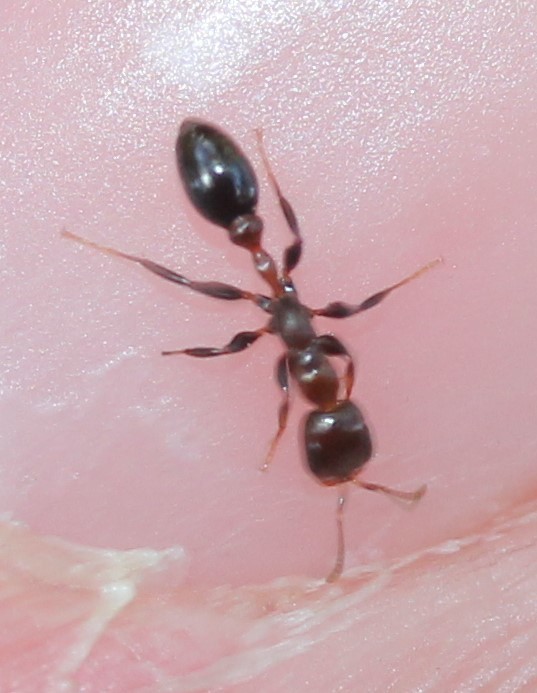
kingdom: Animalia
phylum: Arthropoda
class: Insecta
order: Hymenoptera
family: Formicidae
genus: Pseudomyrmex
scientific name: Pseudomyrmex ejectus
